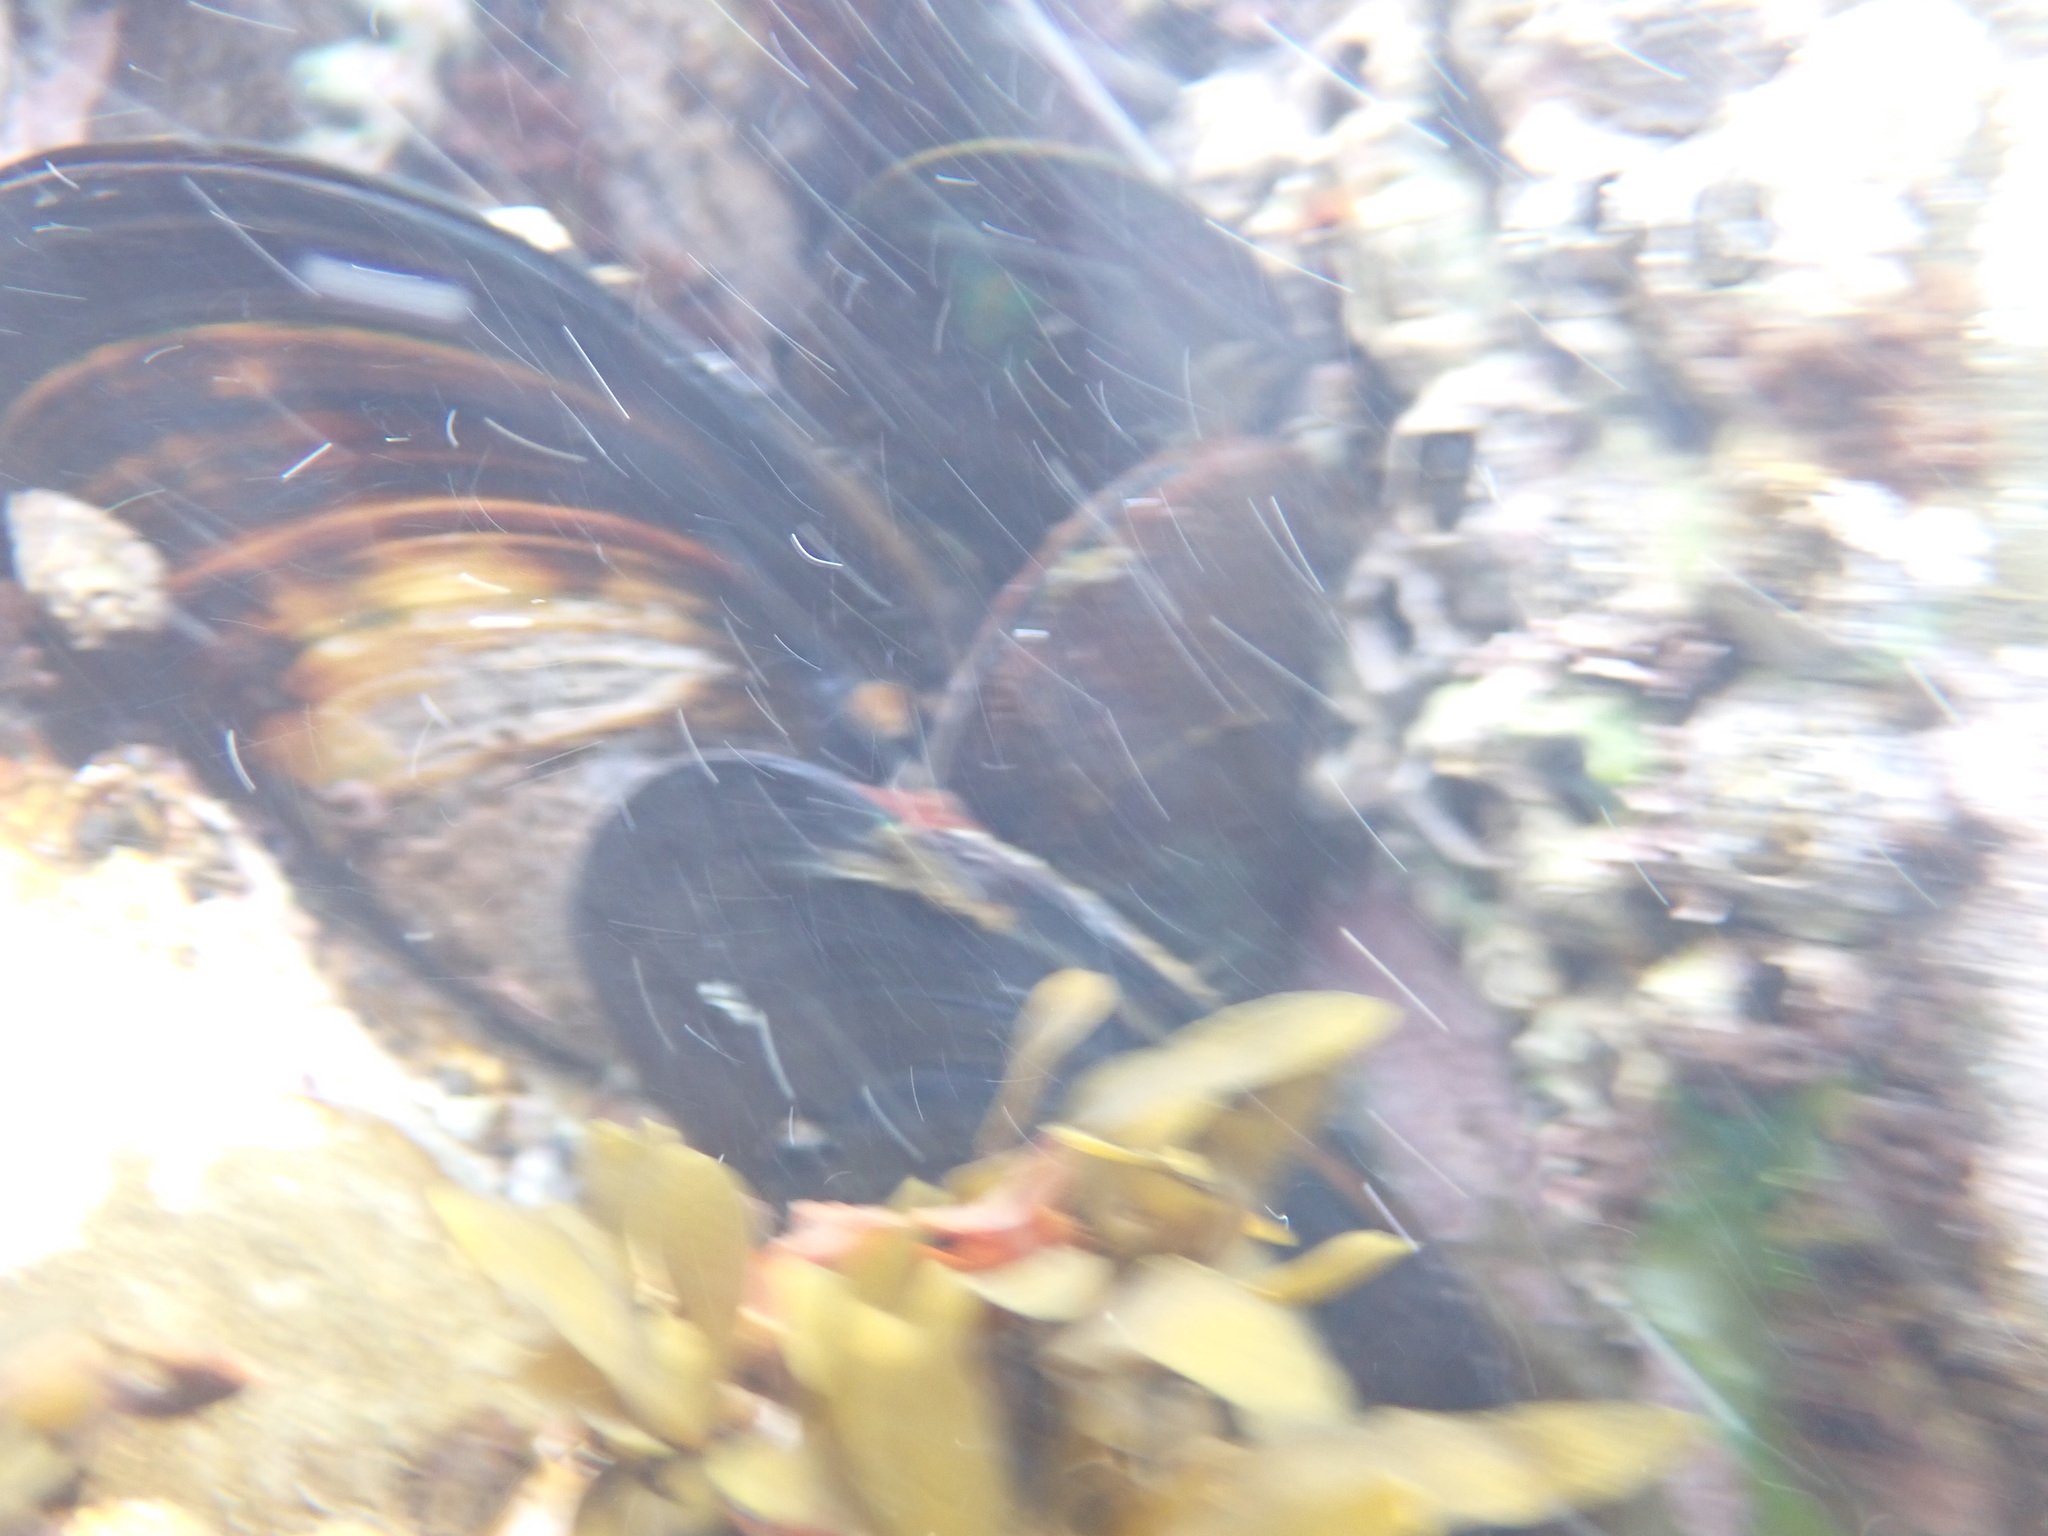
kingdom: Animalia
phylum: Mollusca
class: Bivalvia
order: Mytilida
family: Mytilidae
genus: Perna
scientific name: Perna canaliculus
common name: New zealand greenshelltm
